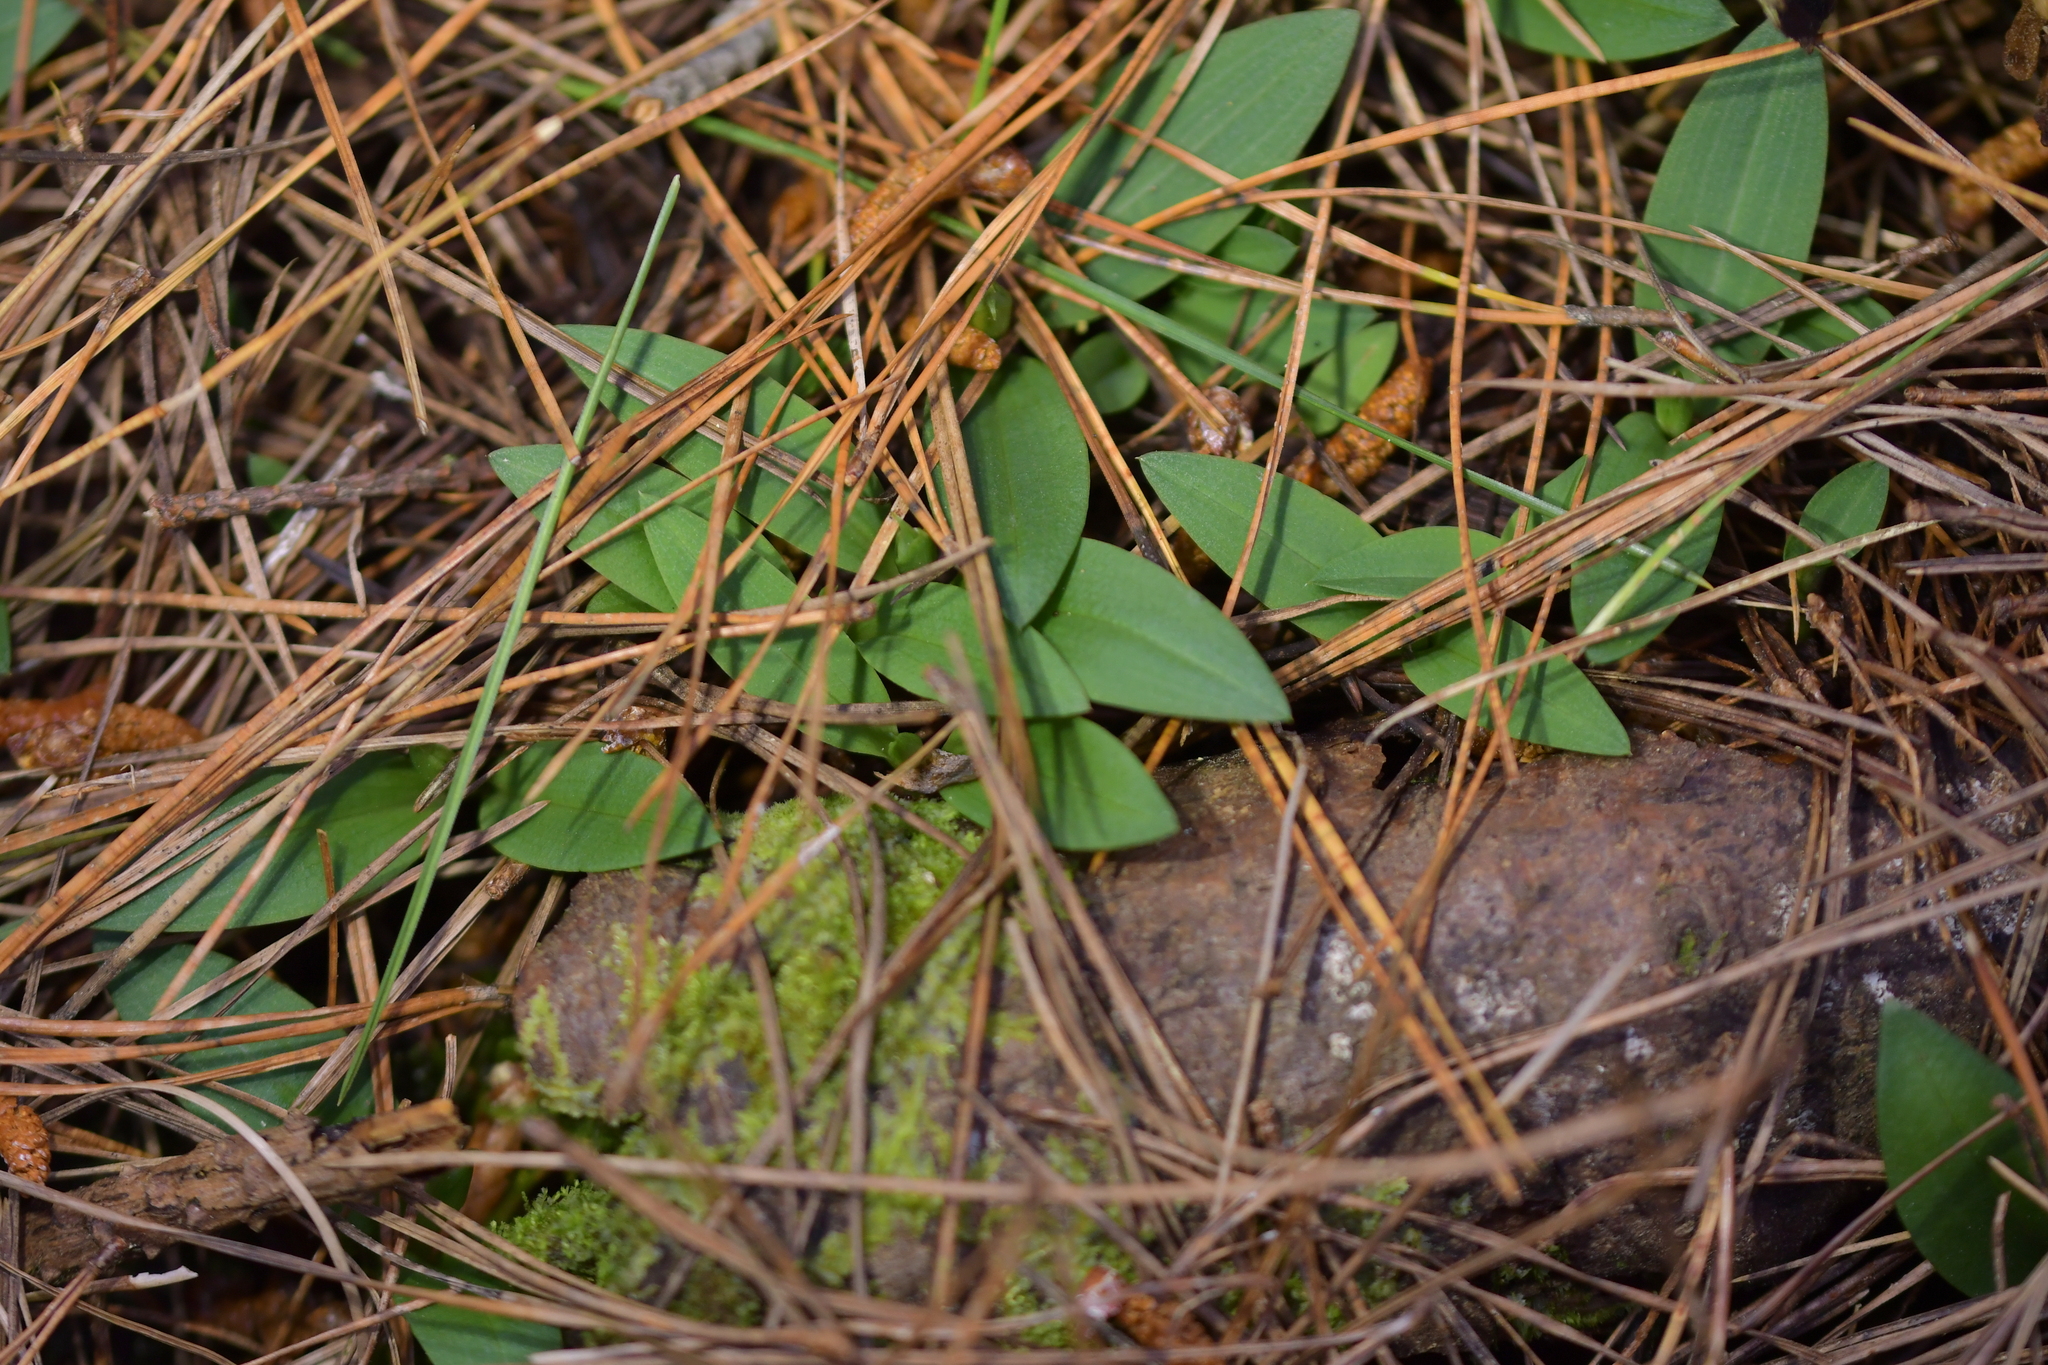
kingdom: Plantae
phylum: Tracheophyta
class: Liliopsida
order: Asparagales
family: Orchidaceae
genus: Chiloglottis
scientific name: Chiloglottis cornuta
